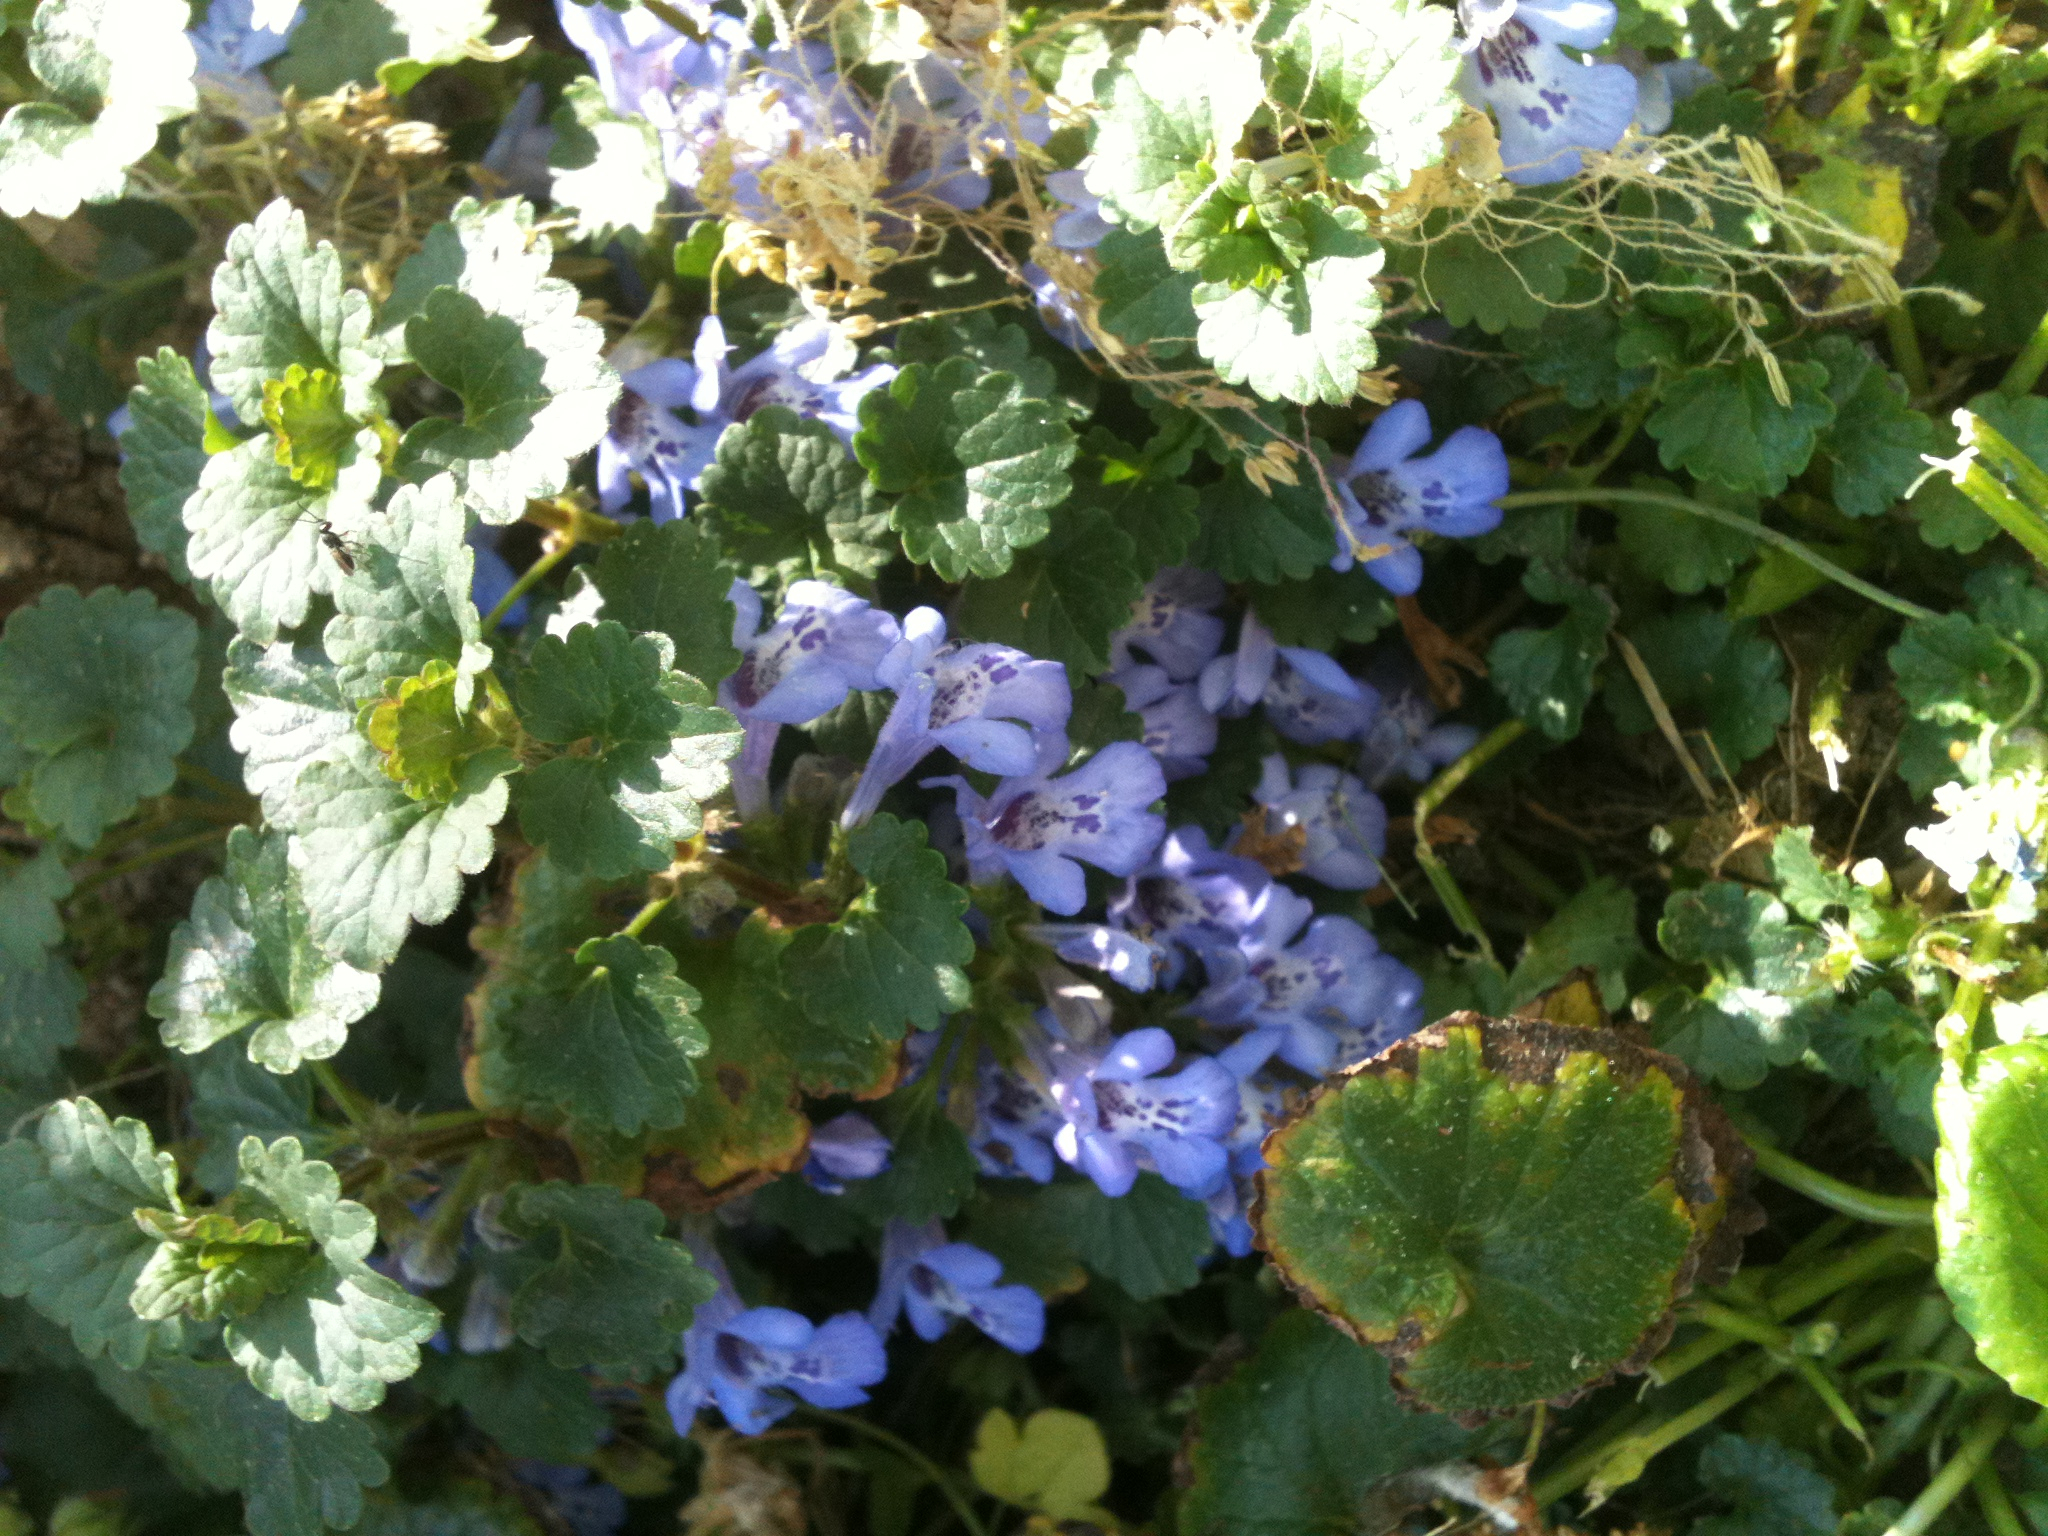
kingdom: Plantae
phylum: Tracheophyta
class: Magnoliopsida
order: Lamiales
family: Lamiaceae
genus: Glechoma
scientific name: Glechoma hederacea
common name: Ground ivy
